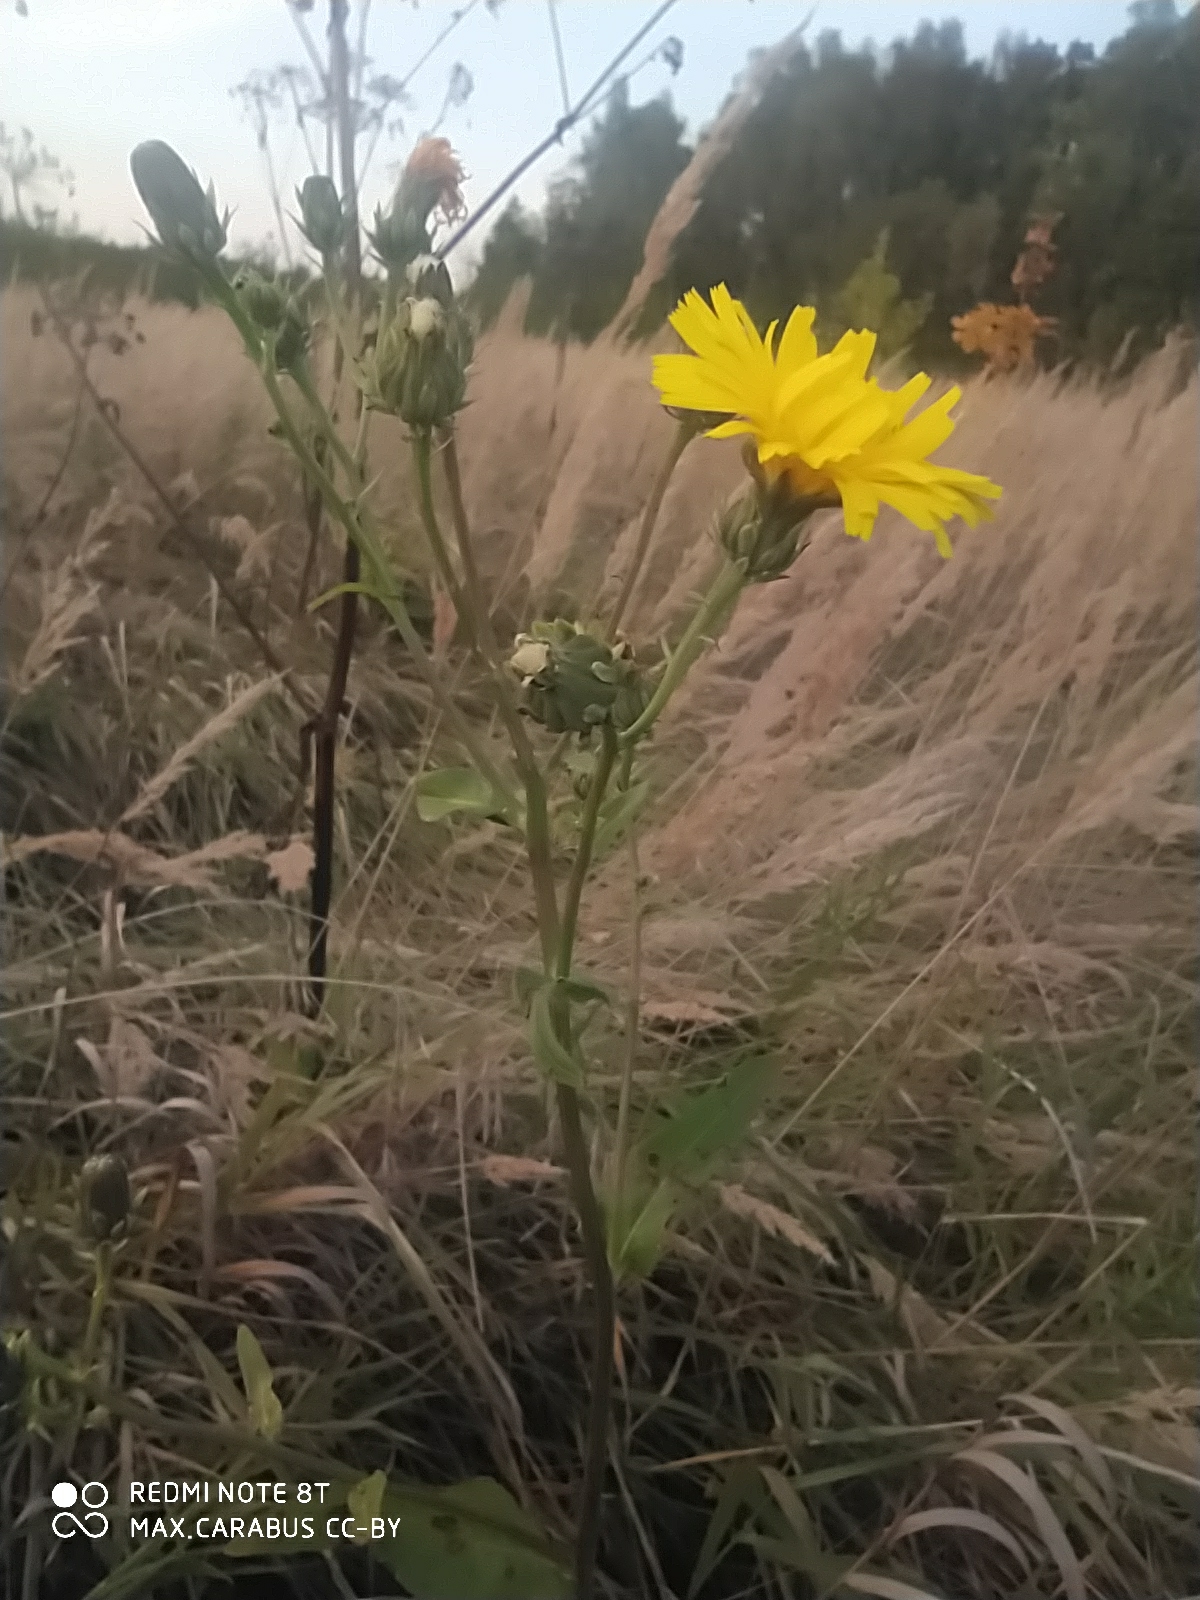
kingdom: Plantae
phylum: Tracheophyta
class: Magnoliopsida
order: Asterales
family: Asteraceae
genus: Picris
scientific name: Picris hieracioides
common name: Hawkweed oxtongue
